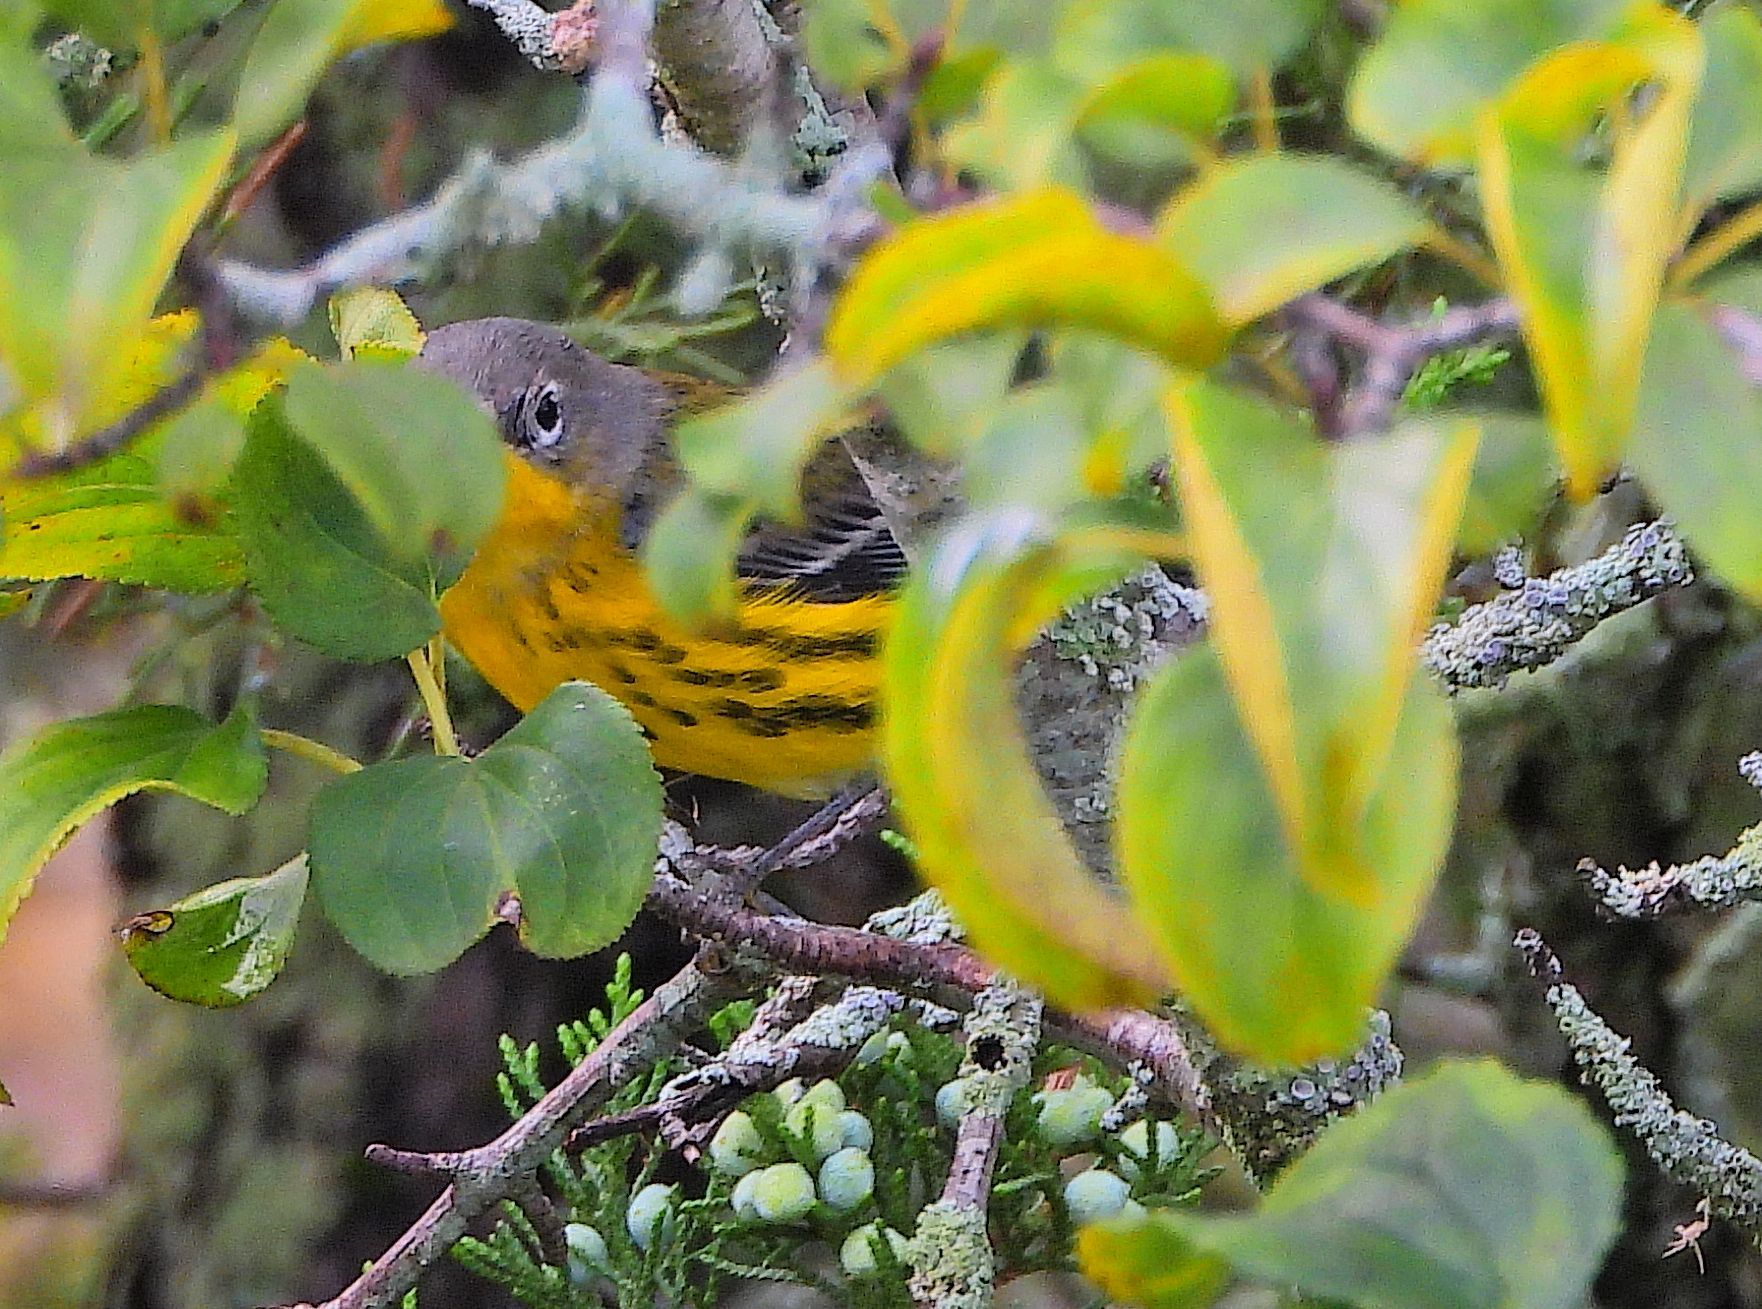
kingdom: Animalia
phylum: Chordata
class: Aves
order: Passeriformes
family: Parulidae
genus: Setophaga
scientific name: Setophaga magnolia
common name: Magnolia warbler
